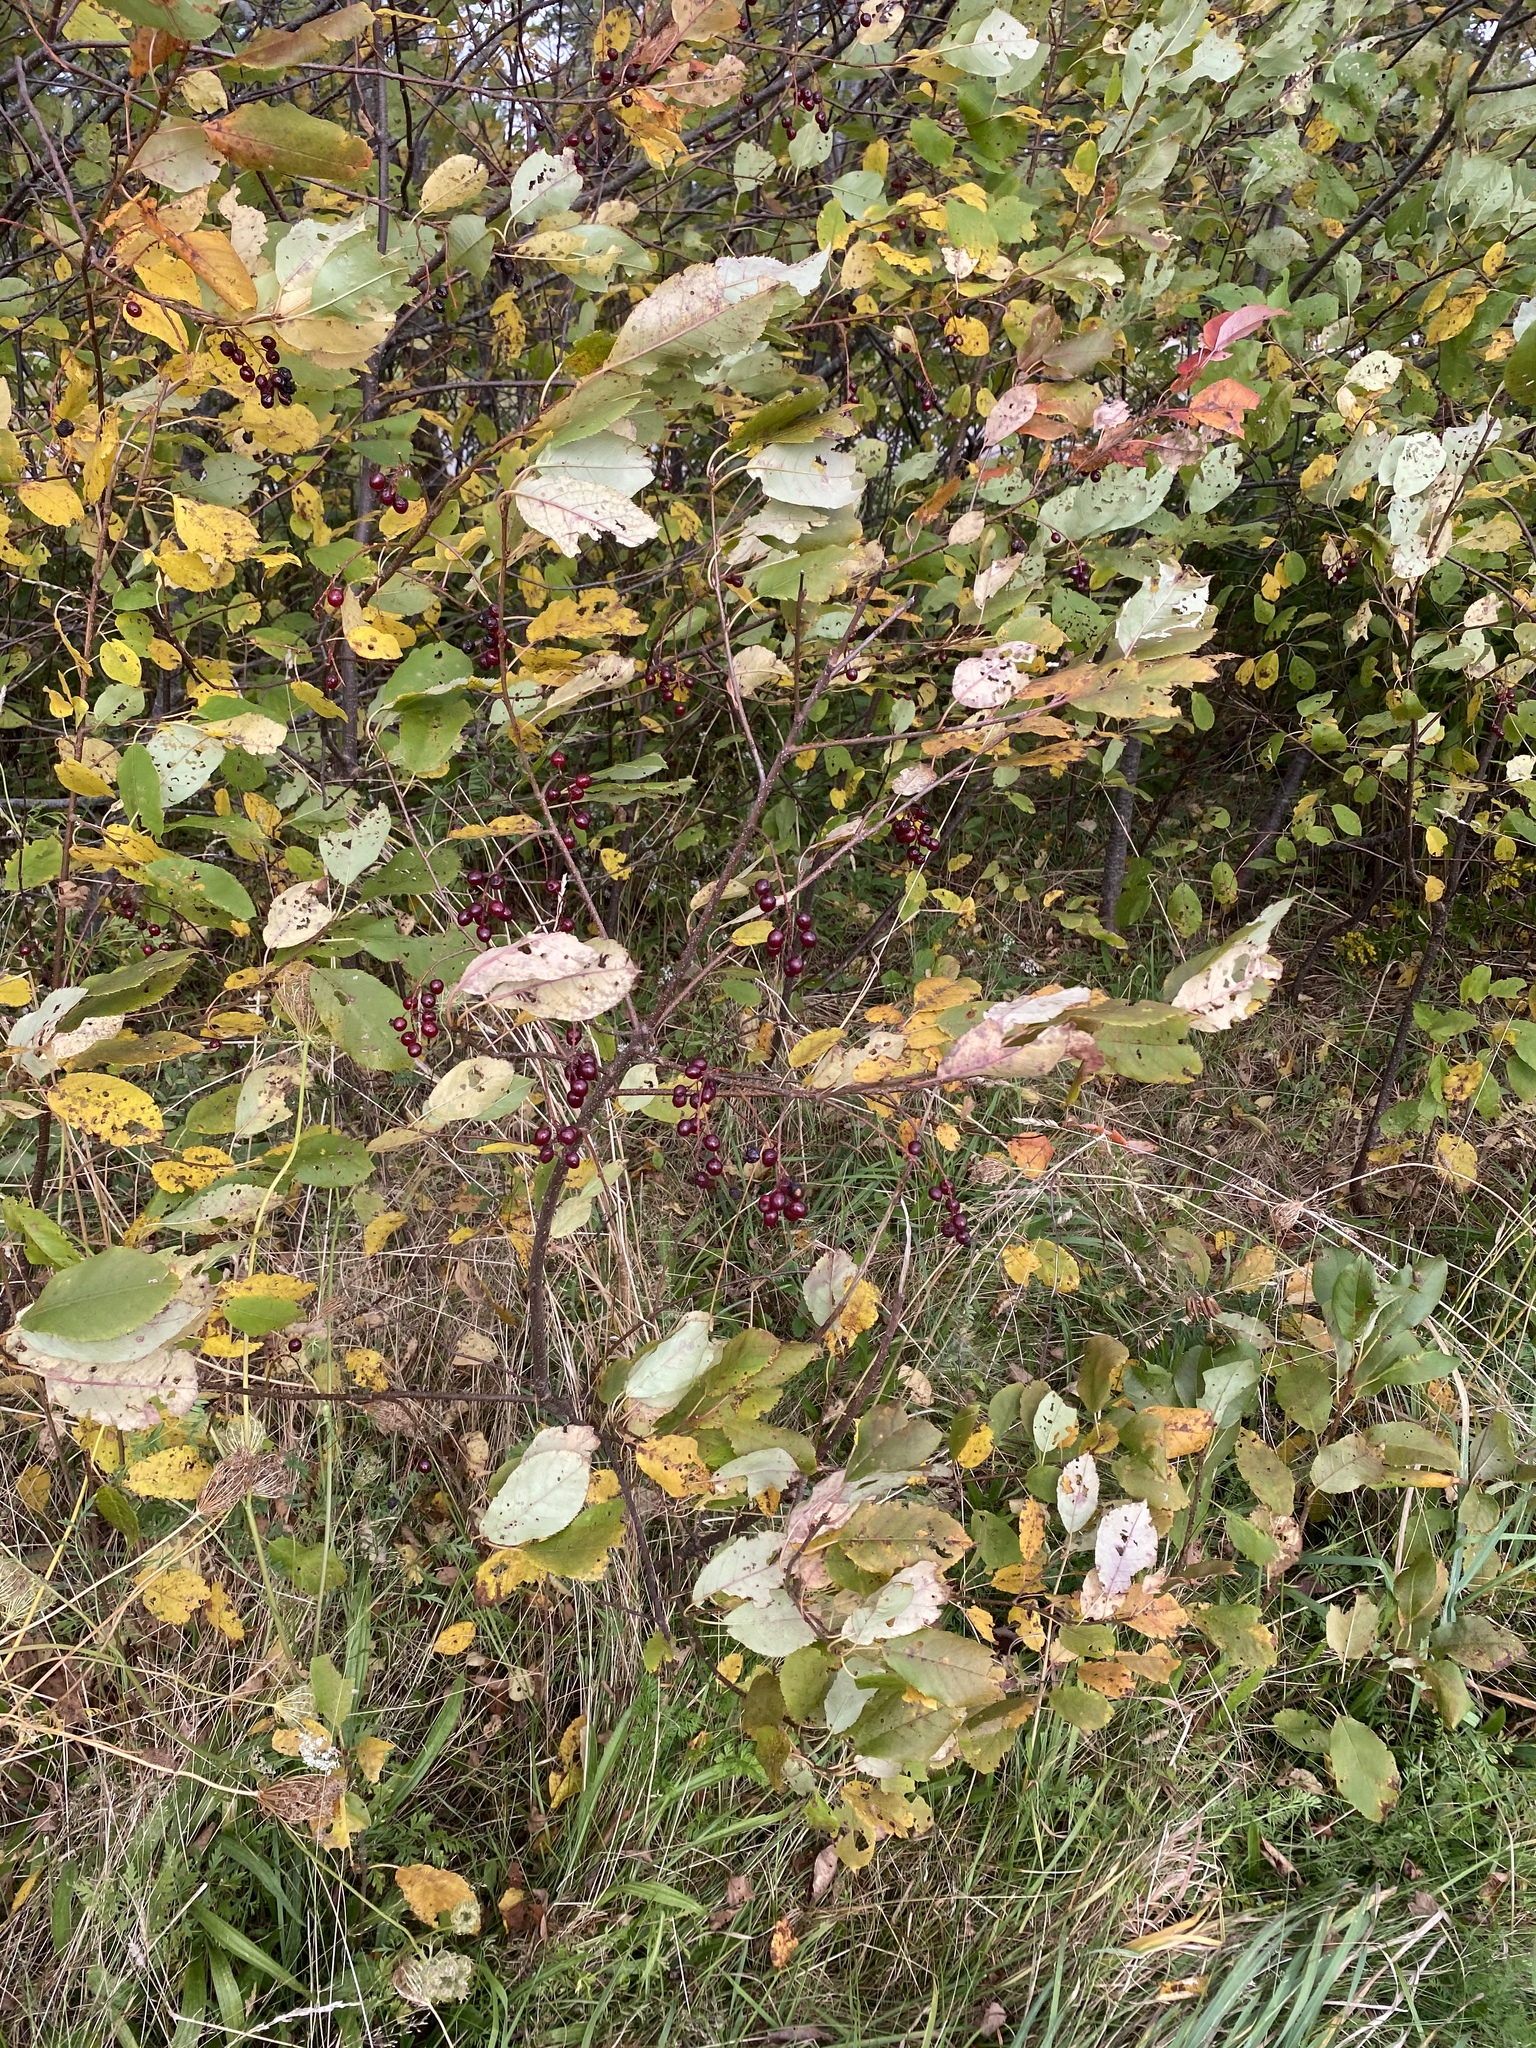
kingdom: Plantae
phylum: Tracheophyta
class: Magnoliopsida
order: Rosales
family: Rosaceae
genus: Prunus
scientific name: Prunus virginiana
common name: Chokecherry
